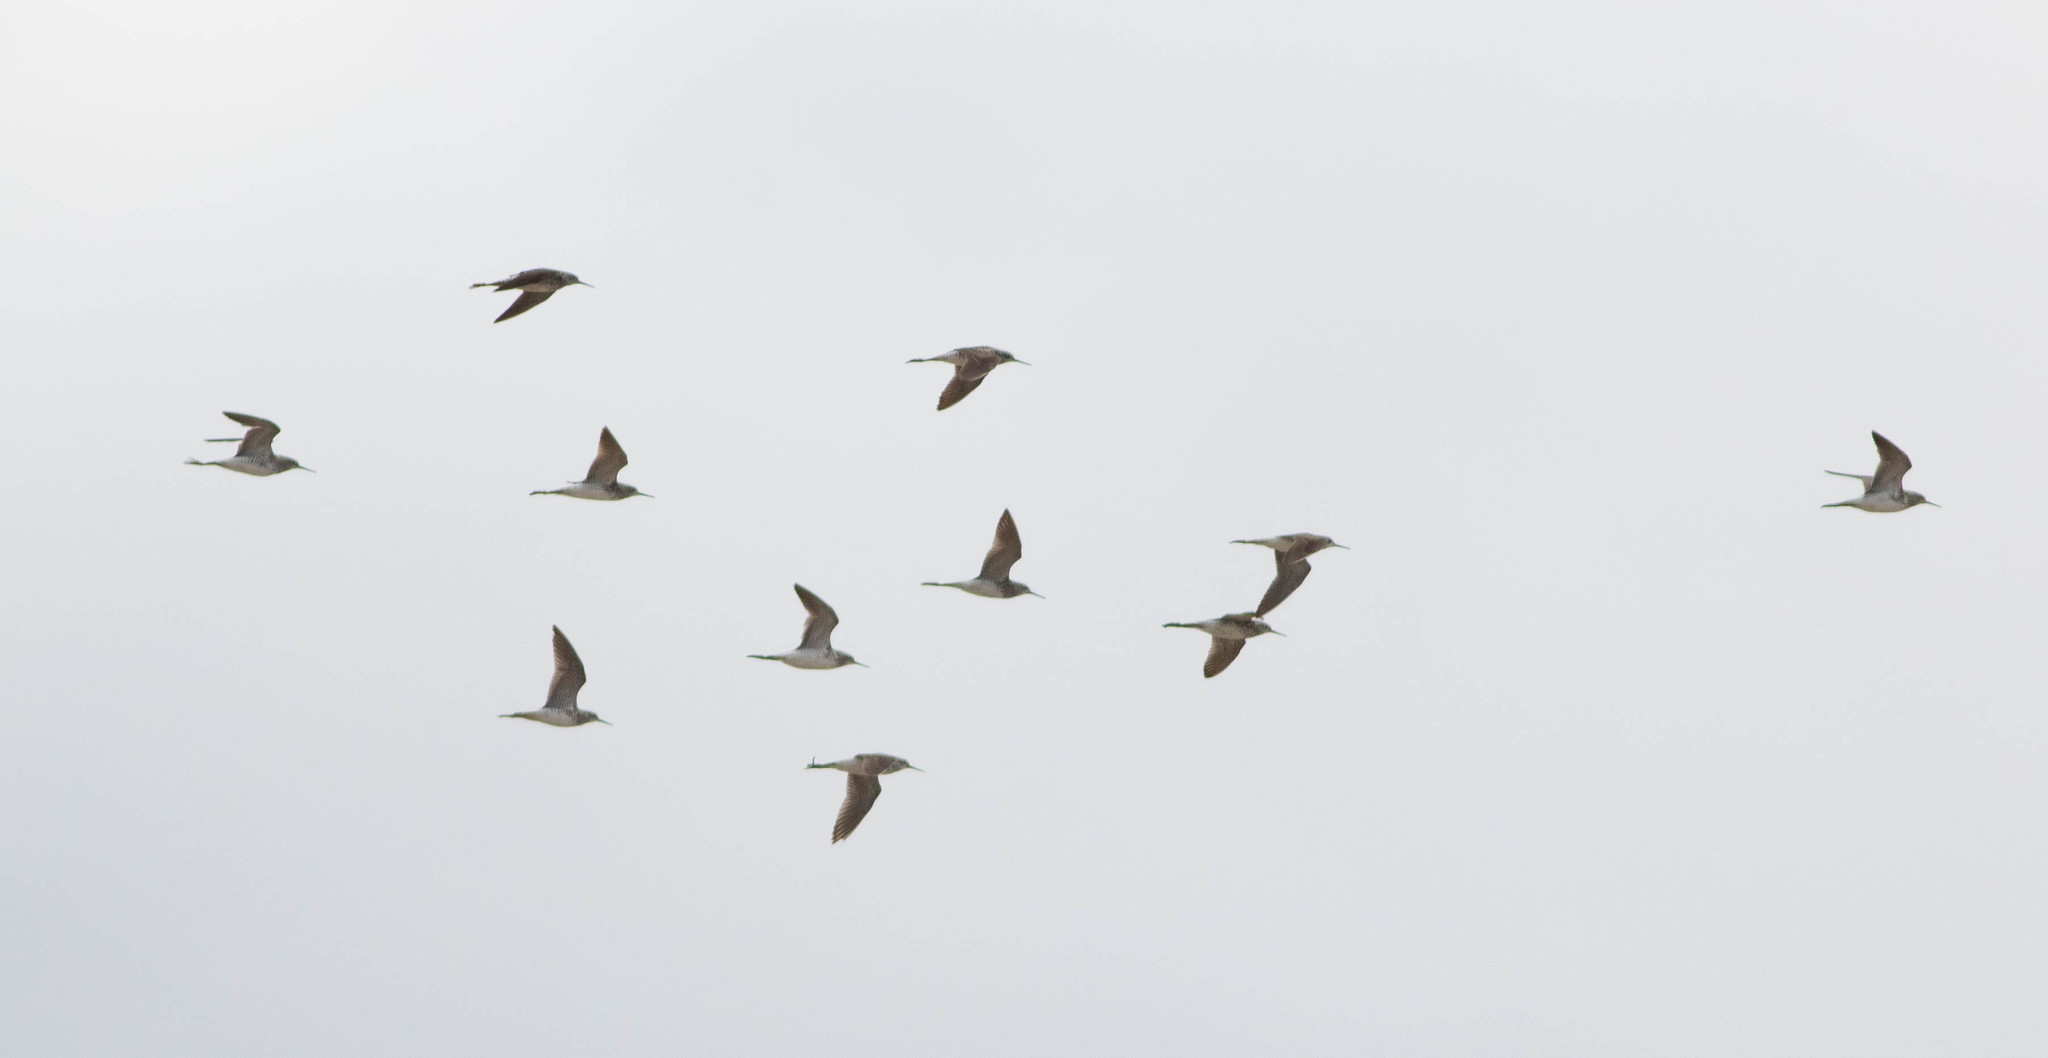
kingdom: Animalia
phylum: Chordata
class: Aves
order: Charadriiformes
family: Scolopacidae
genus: Tringa
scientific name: Tringa flavipes
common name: Lesser yellowlegs
